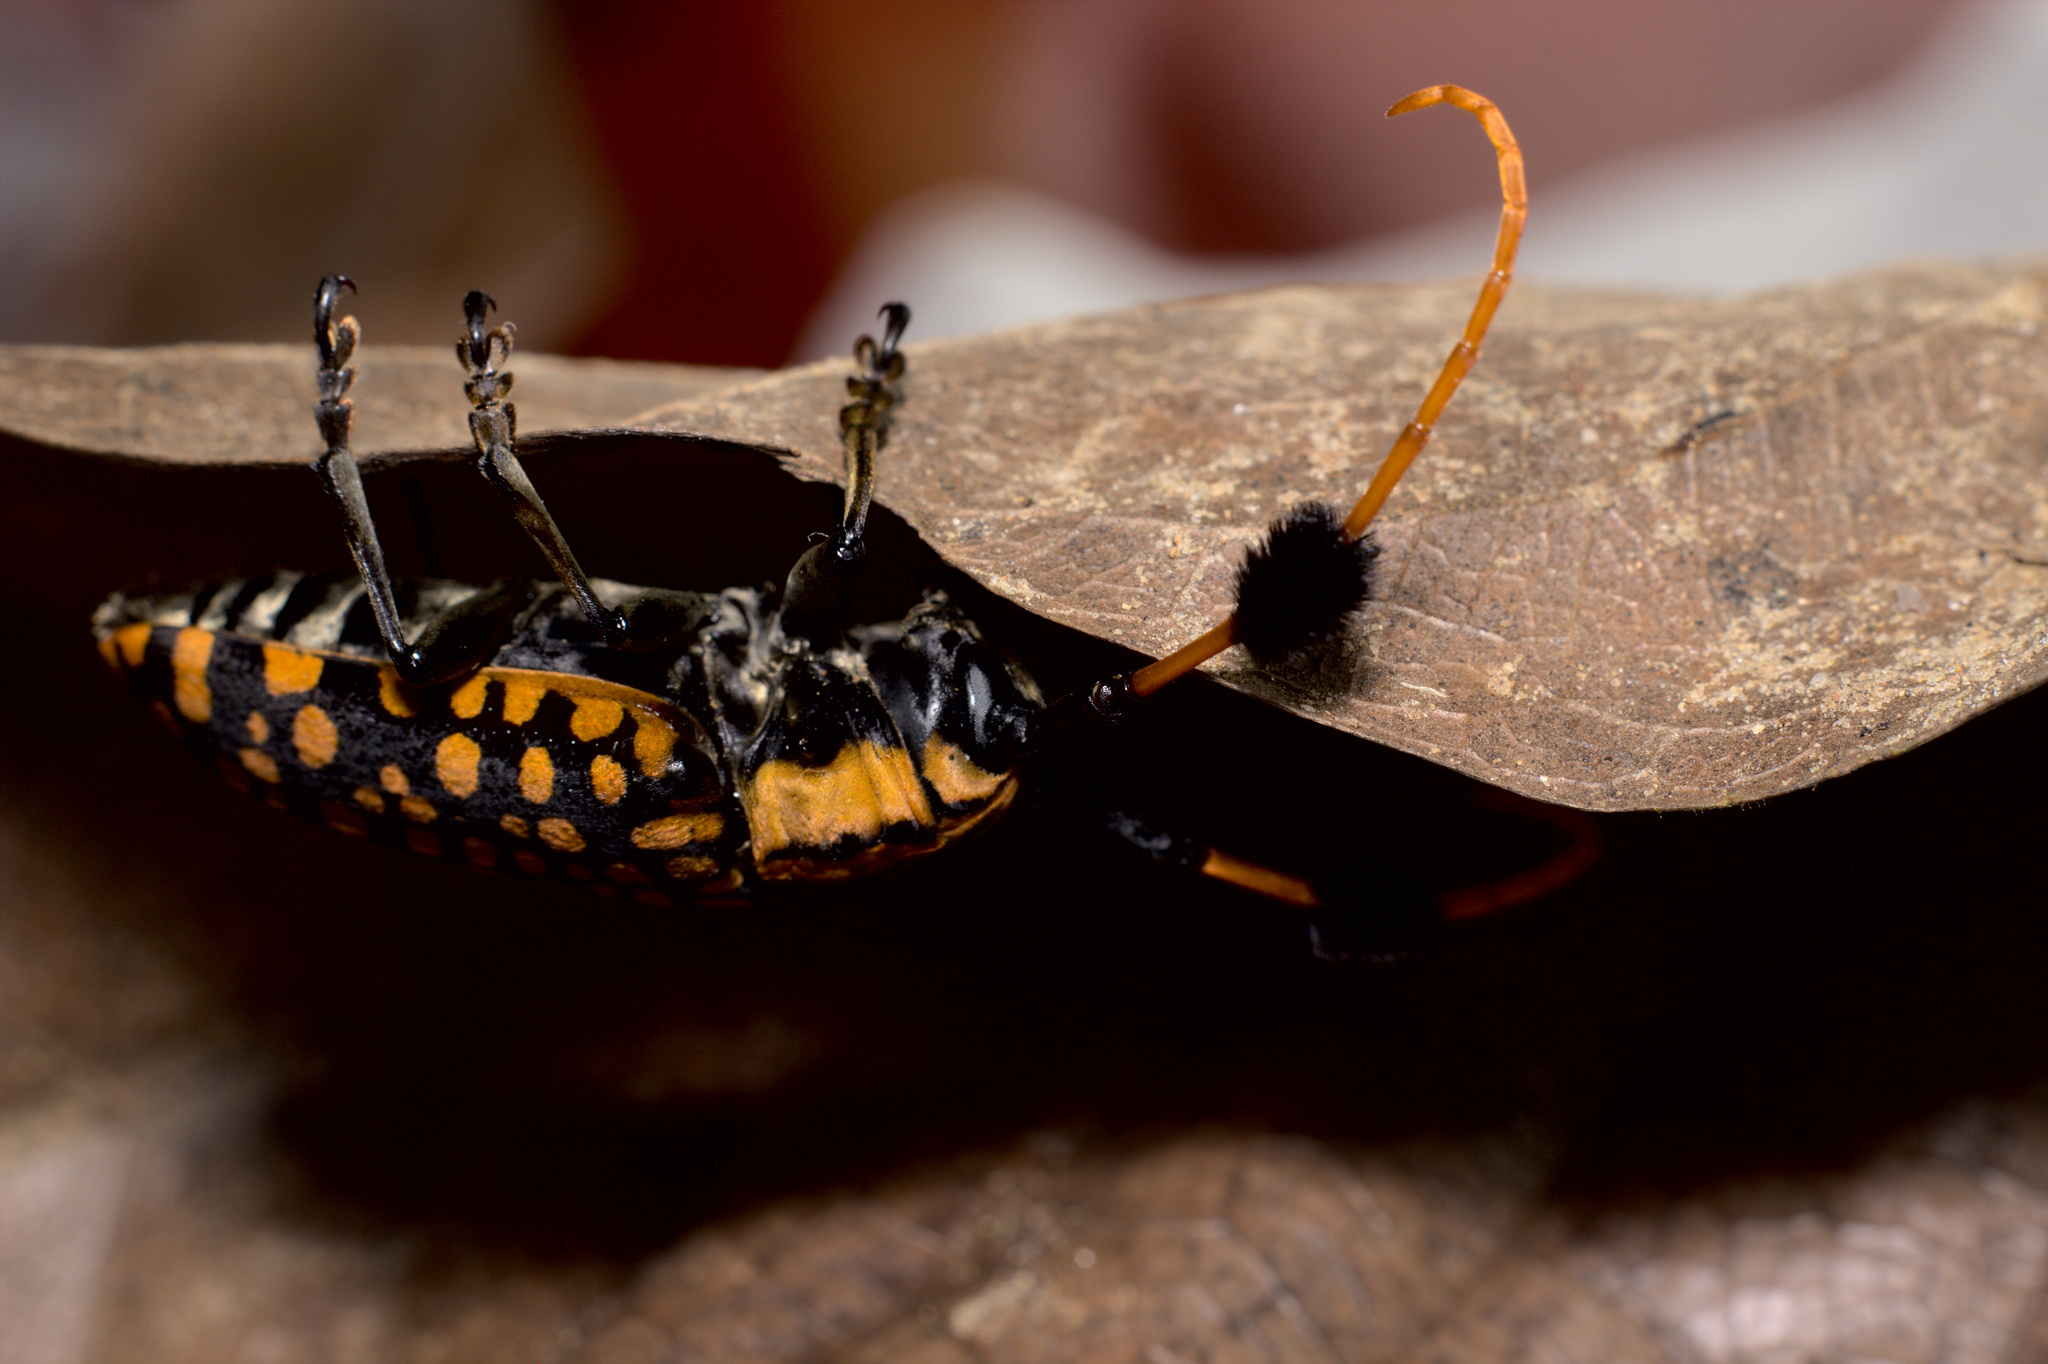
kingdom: Animalia
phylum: Arthropoda
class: Insecta
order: Coleoptera
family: Cerambycidae
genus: Aristobia
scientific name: Aristobia approximator
